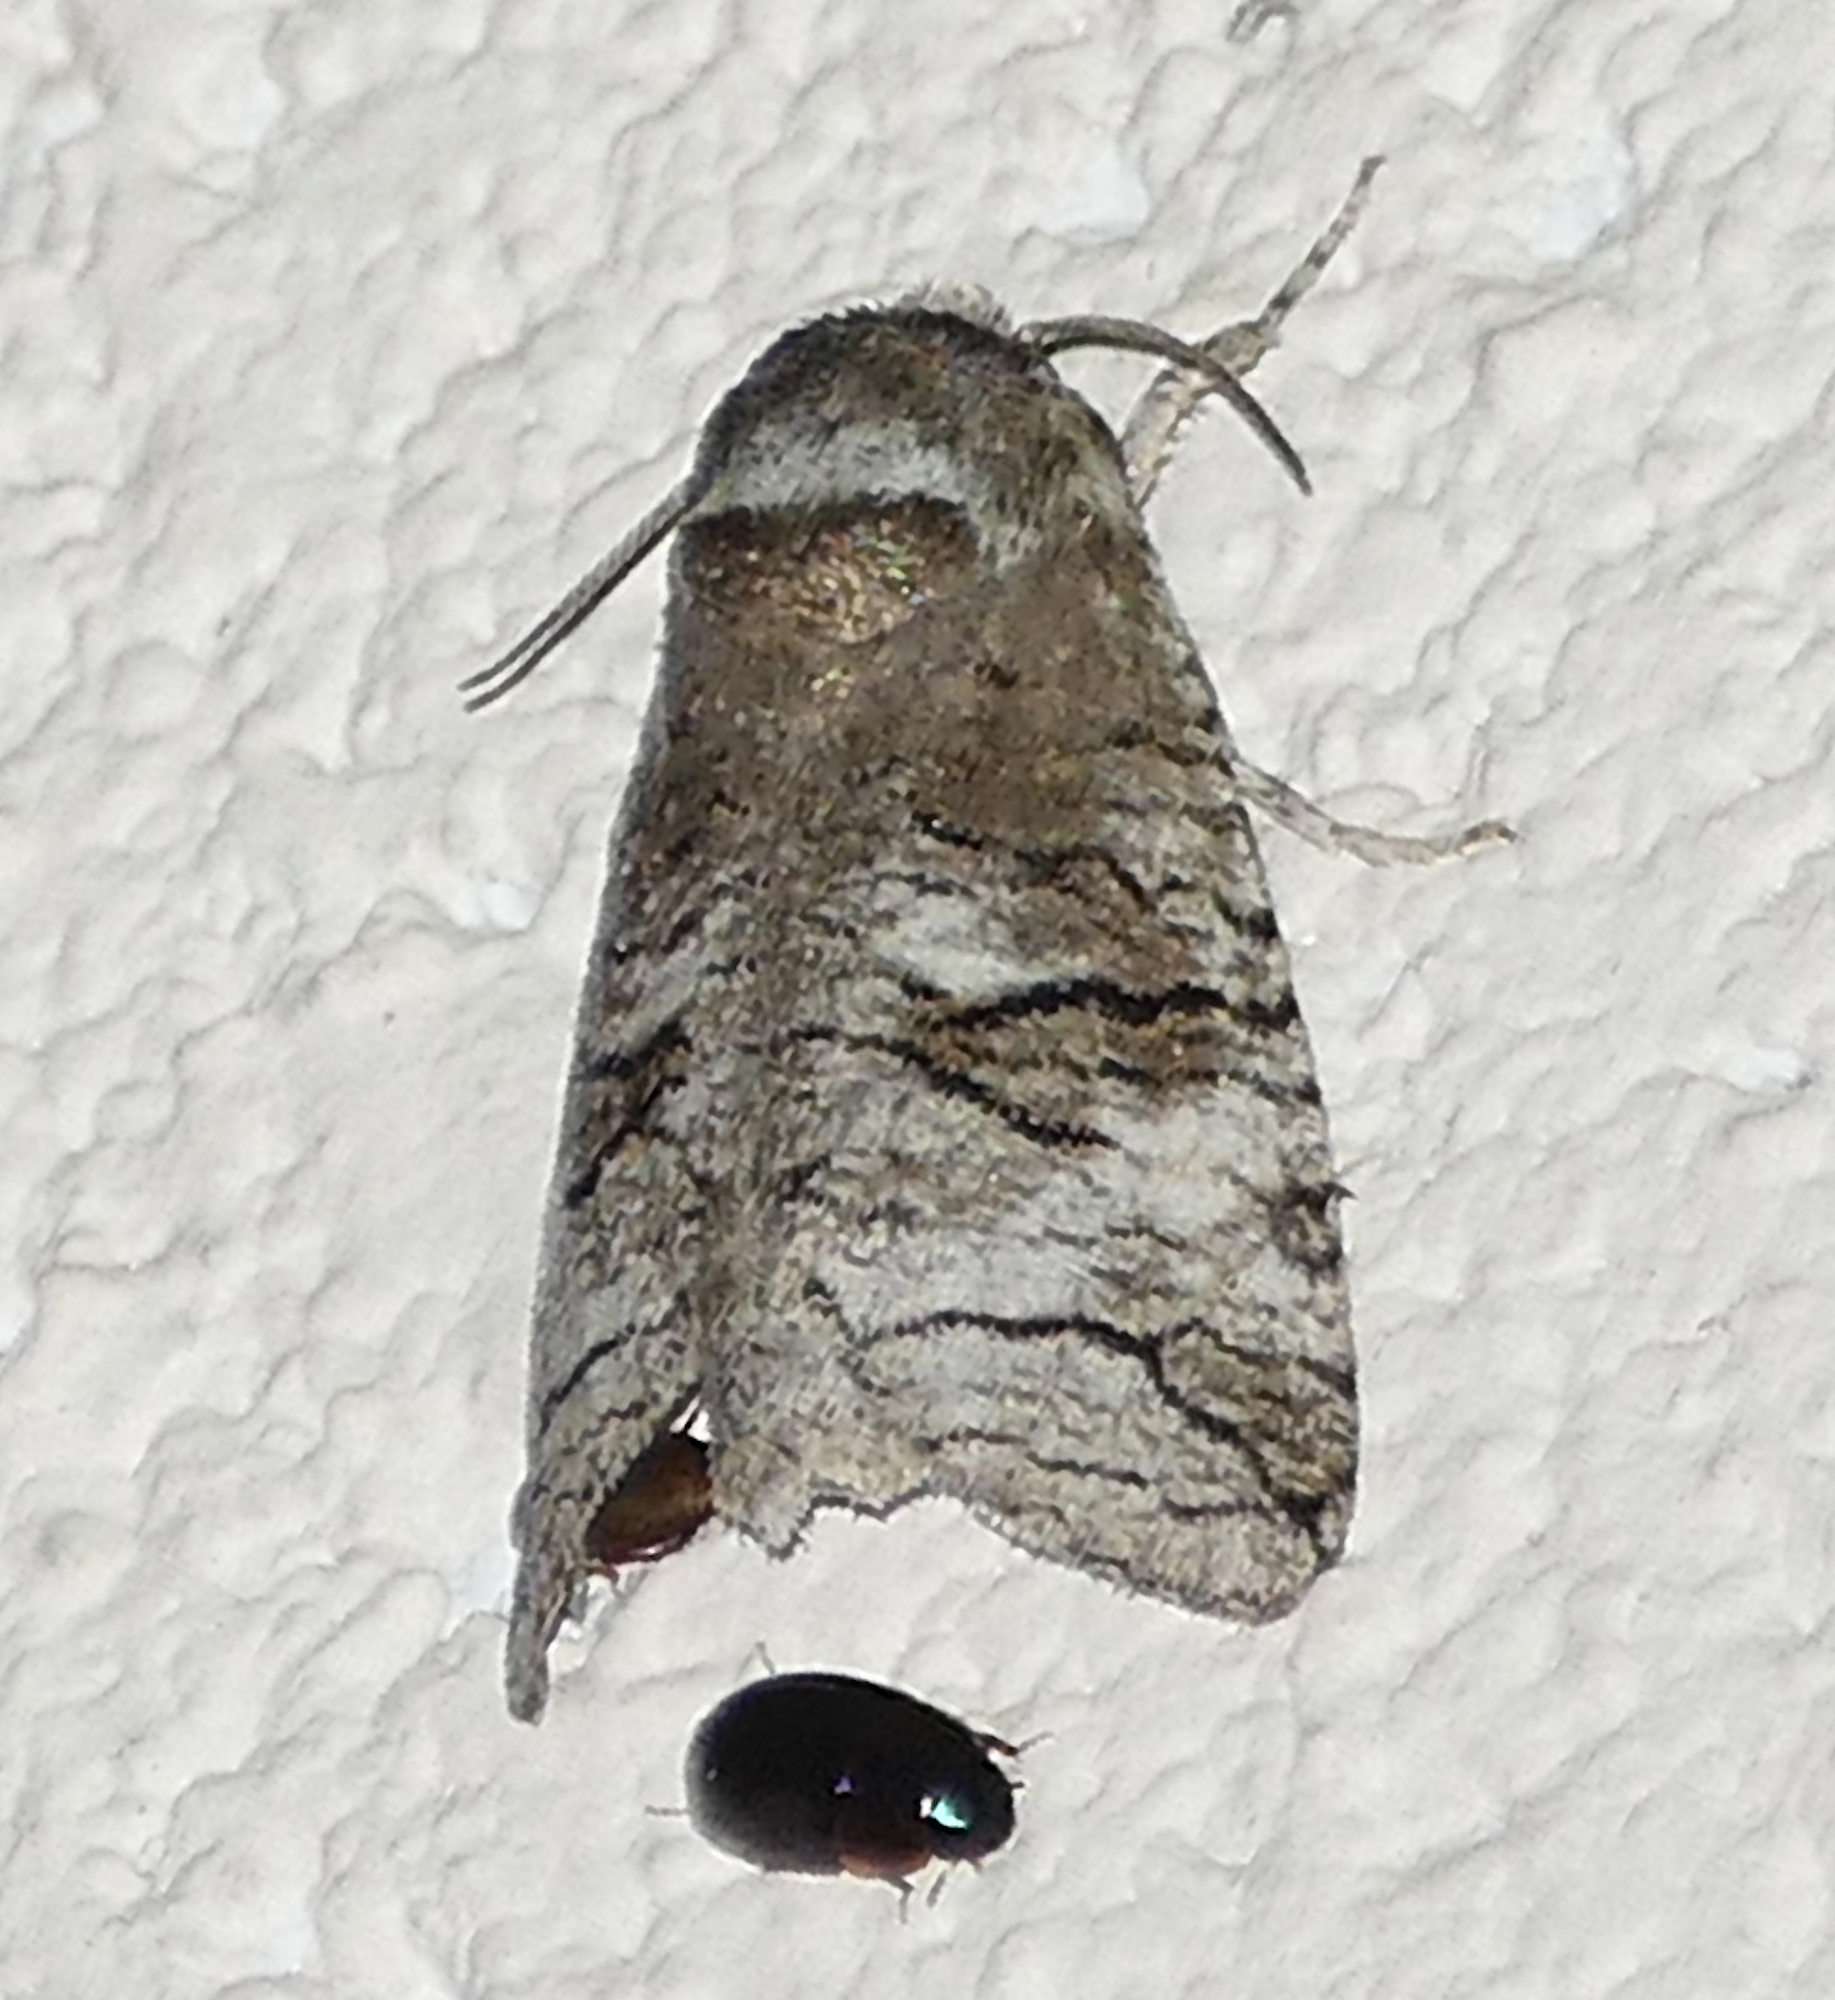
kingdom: Animalia
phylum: Arthropoda
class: Insecta
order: Lepidoptera
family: Cossidae
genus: Fania
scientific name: Fania nanus
